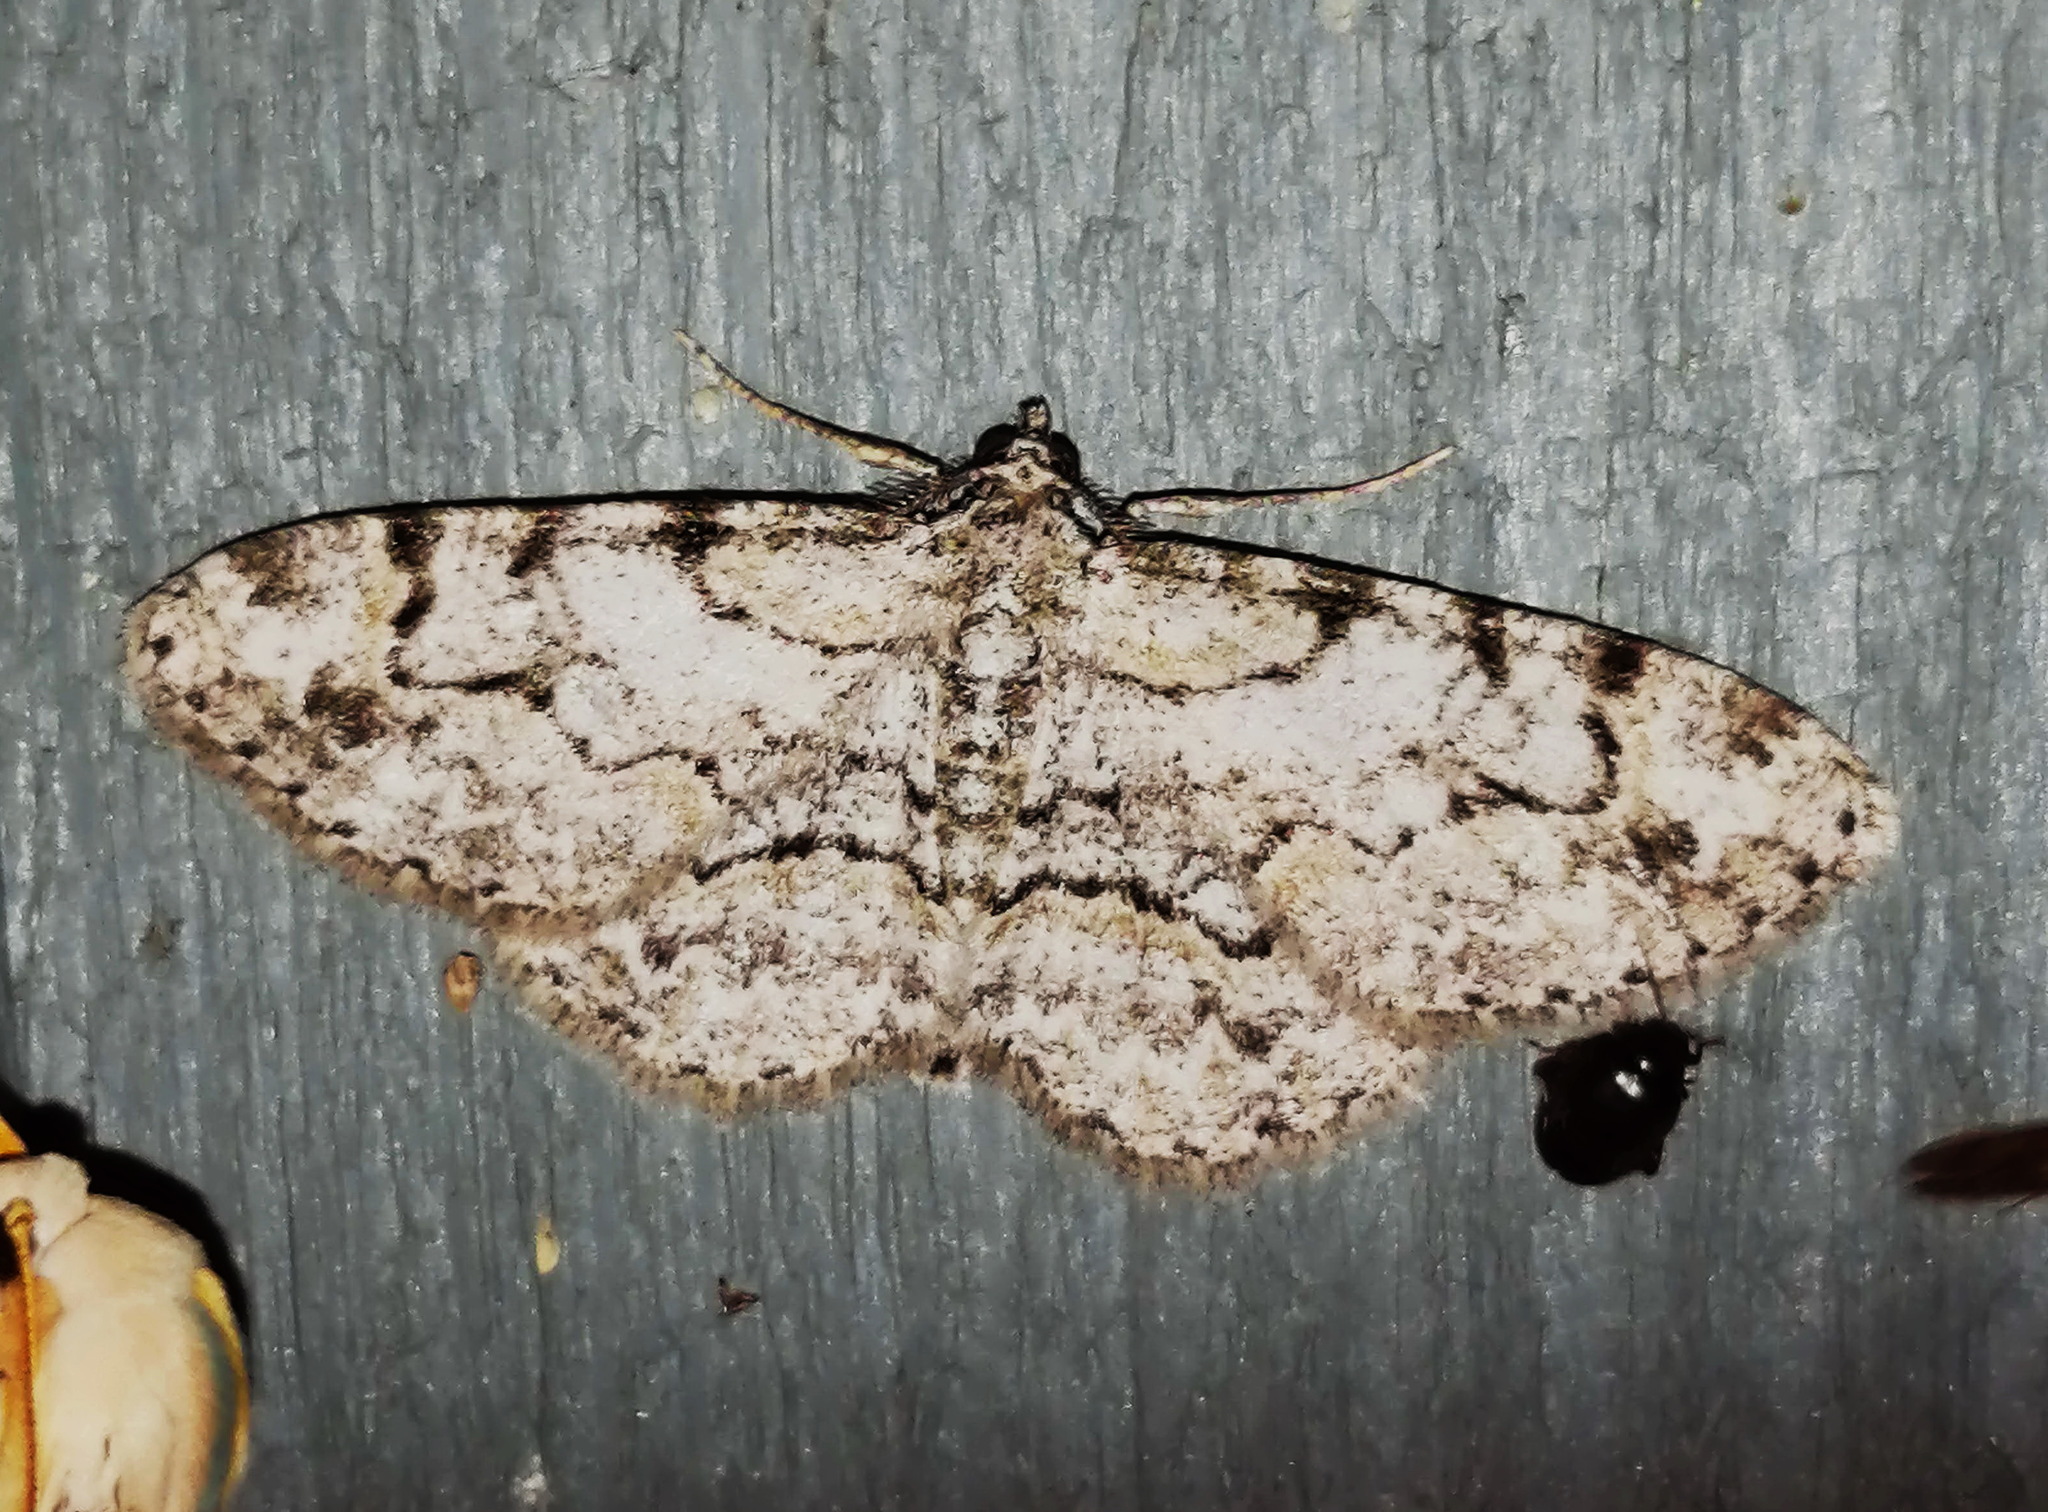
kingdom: Animalia
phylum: Arthropoda
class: Insecta
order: Lepidoptera
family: Geometridae
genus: Iridopsis
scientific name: Iridopsis ephyraria
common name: Pale-winged gray
